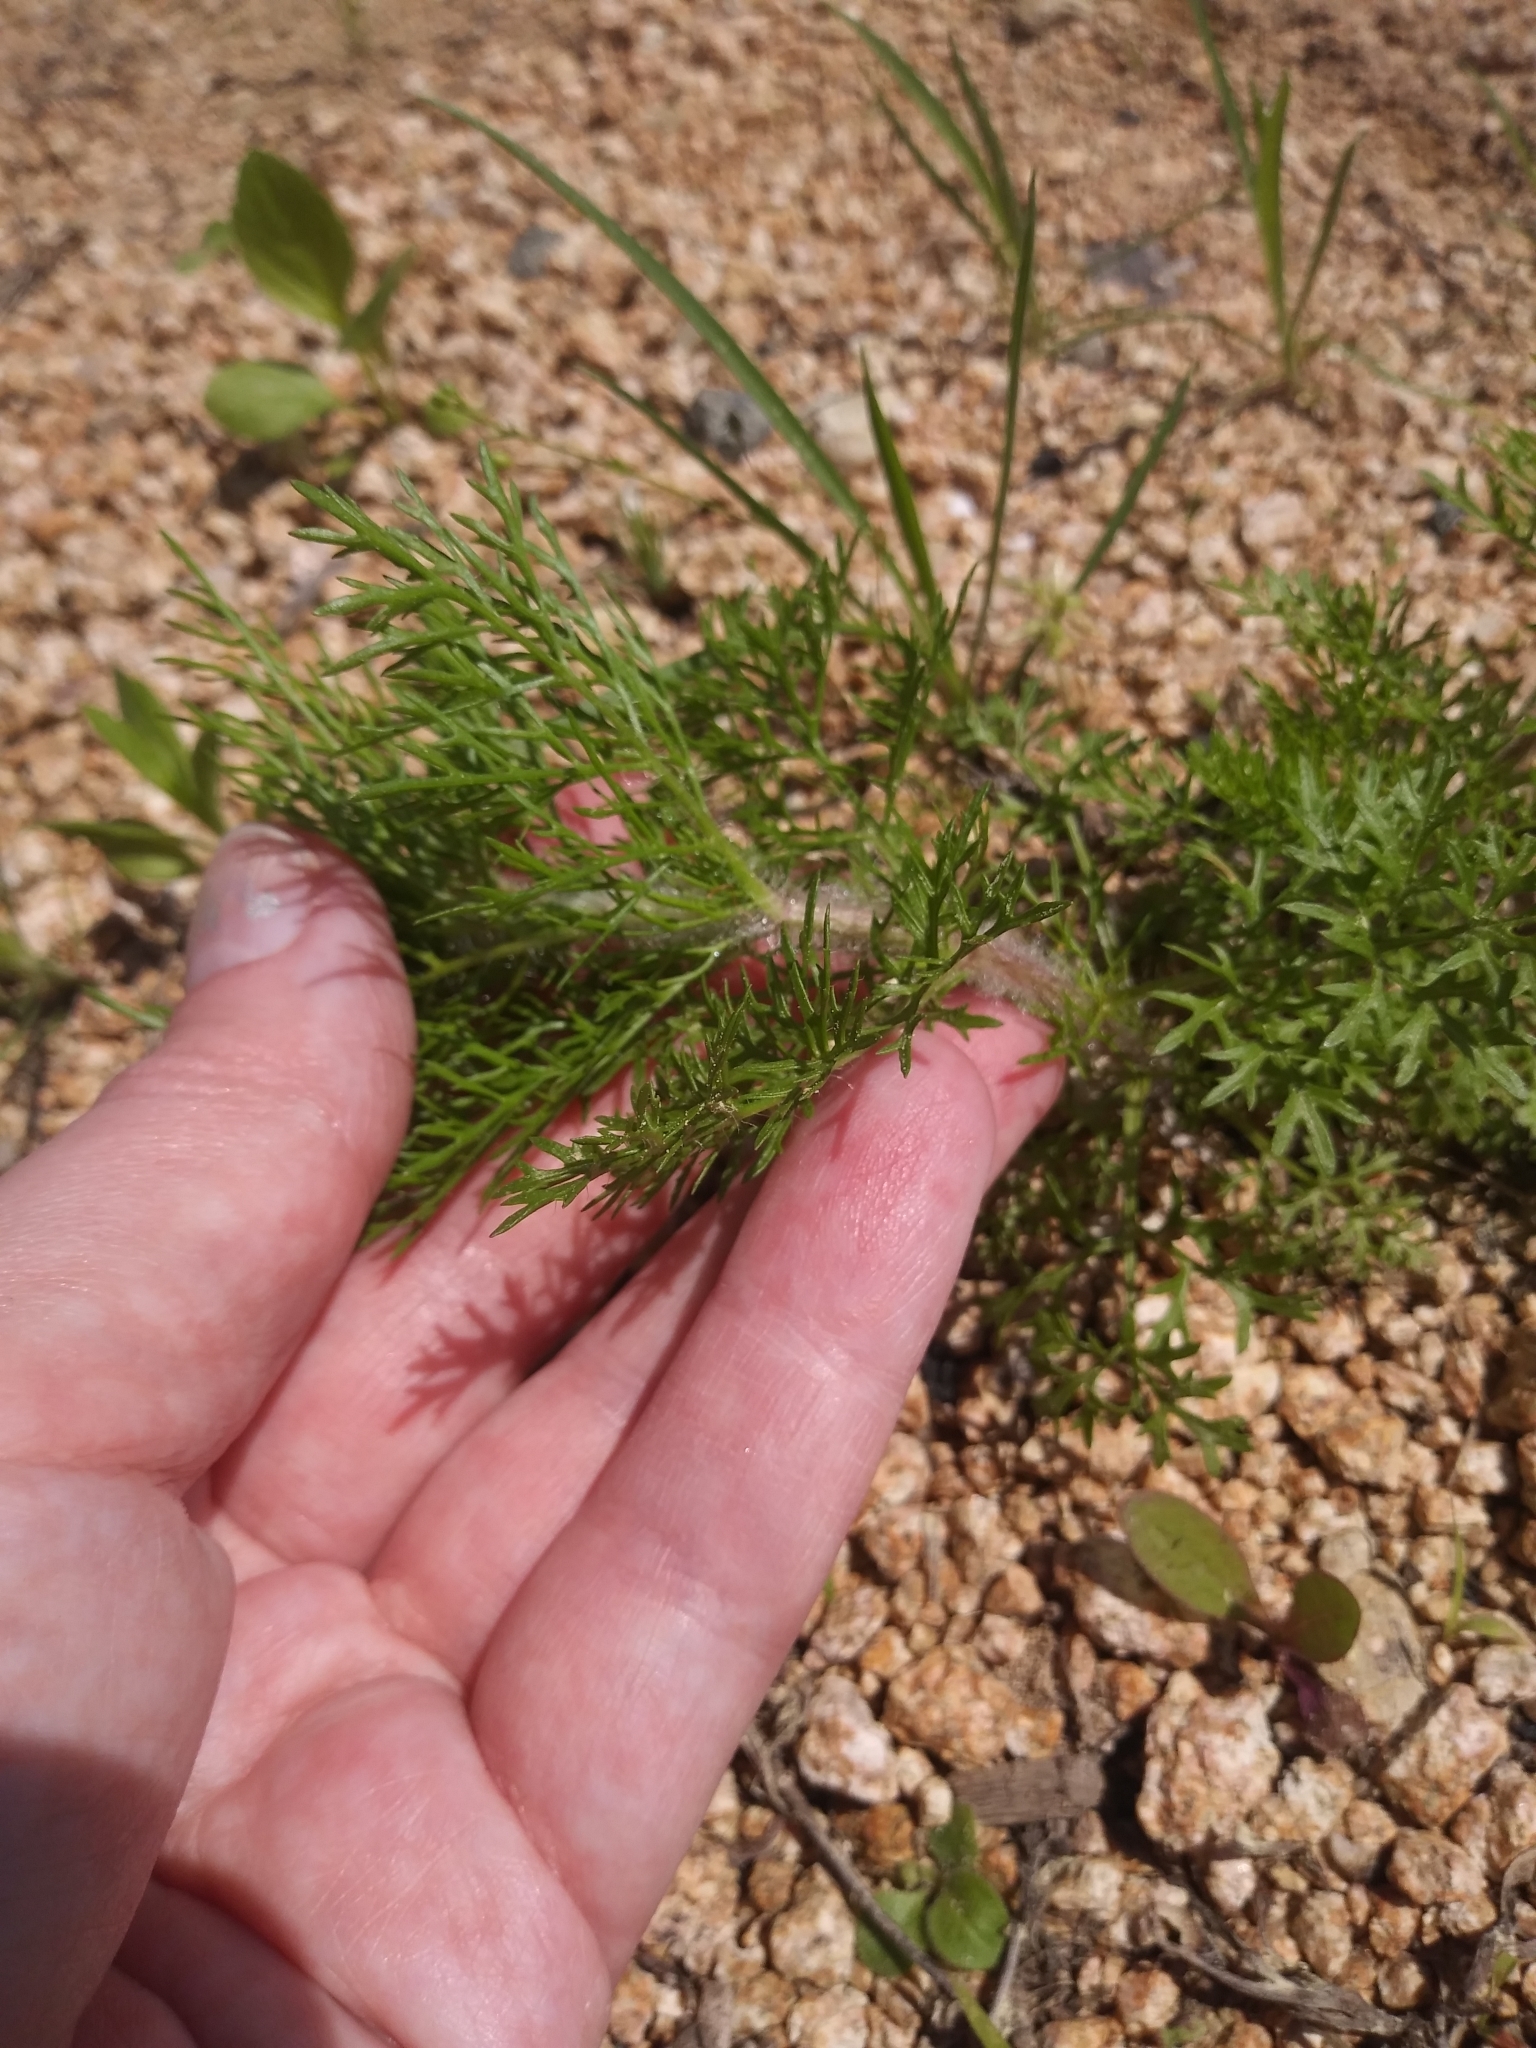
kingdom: Plantae
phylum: Tracheophyta
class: Magnoliopsida
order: Asterales
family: Asteraceae
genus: Eupatorium
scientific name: Eupatorium capillifolium
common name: Dog-fennel
